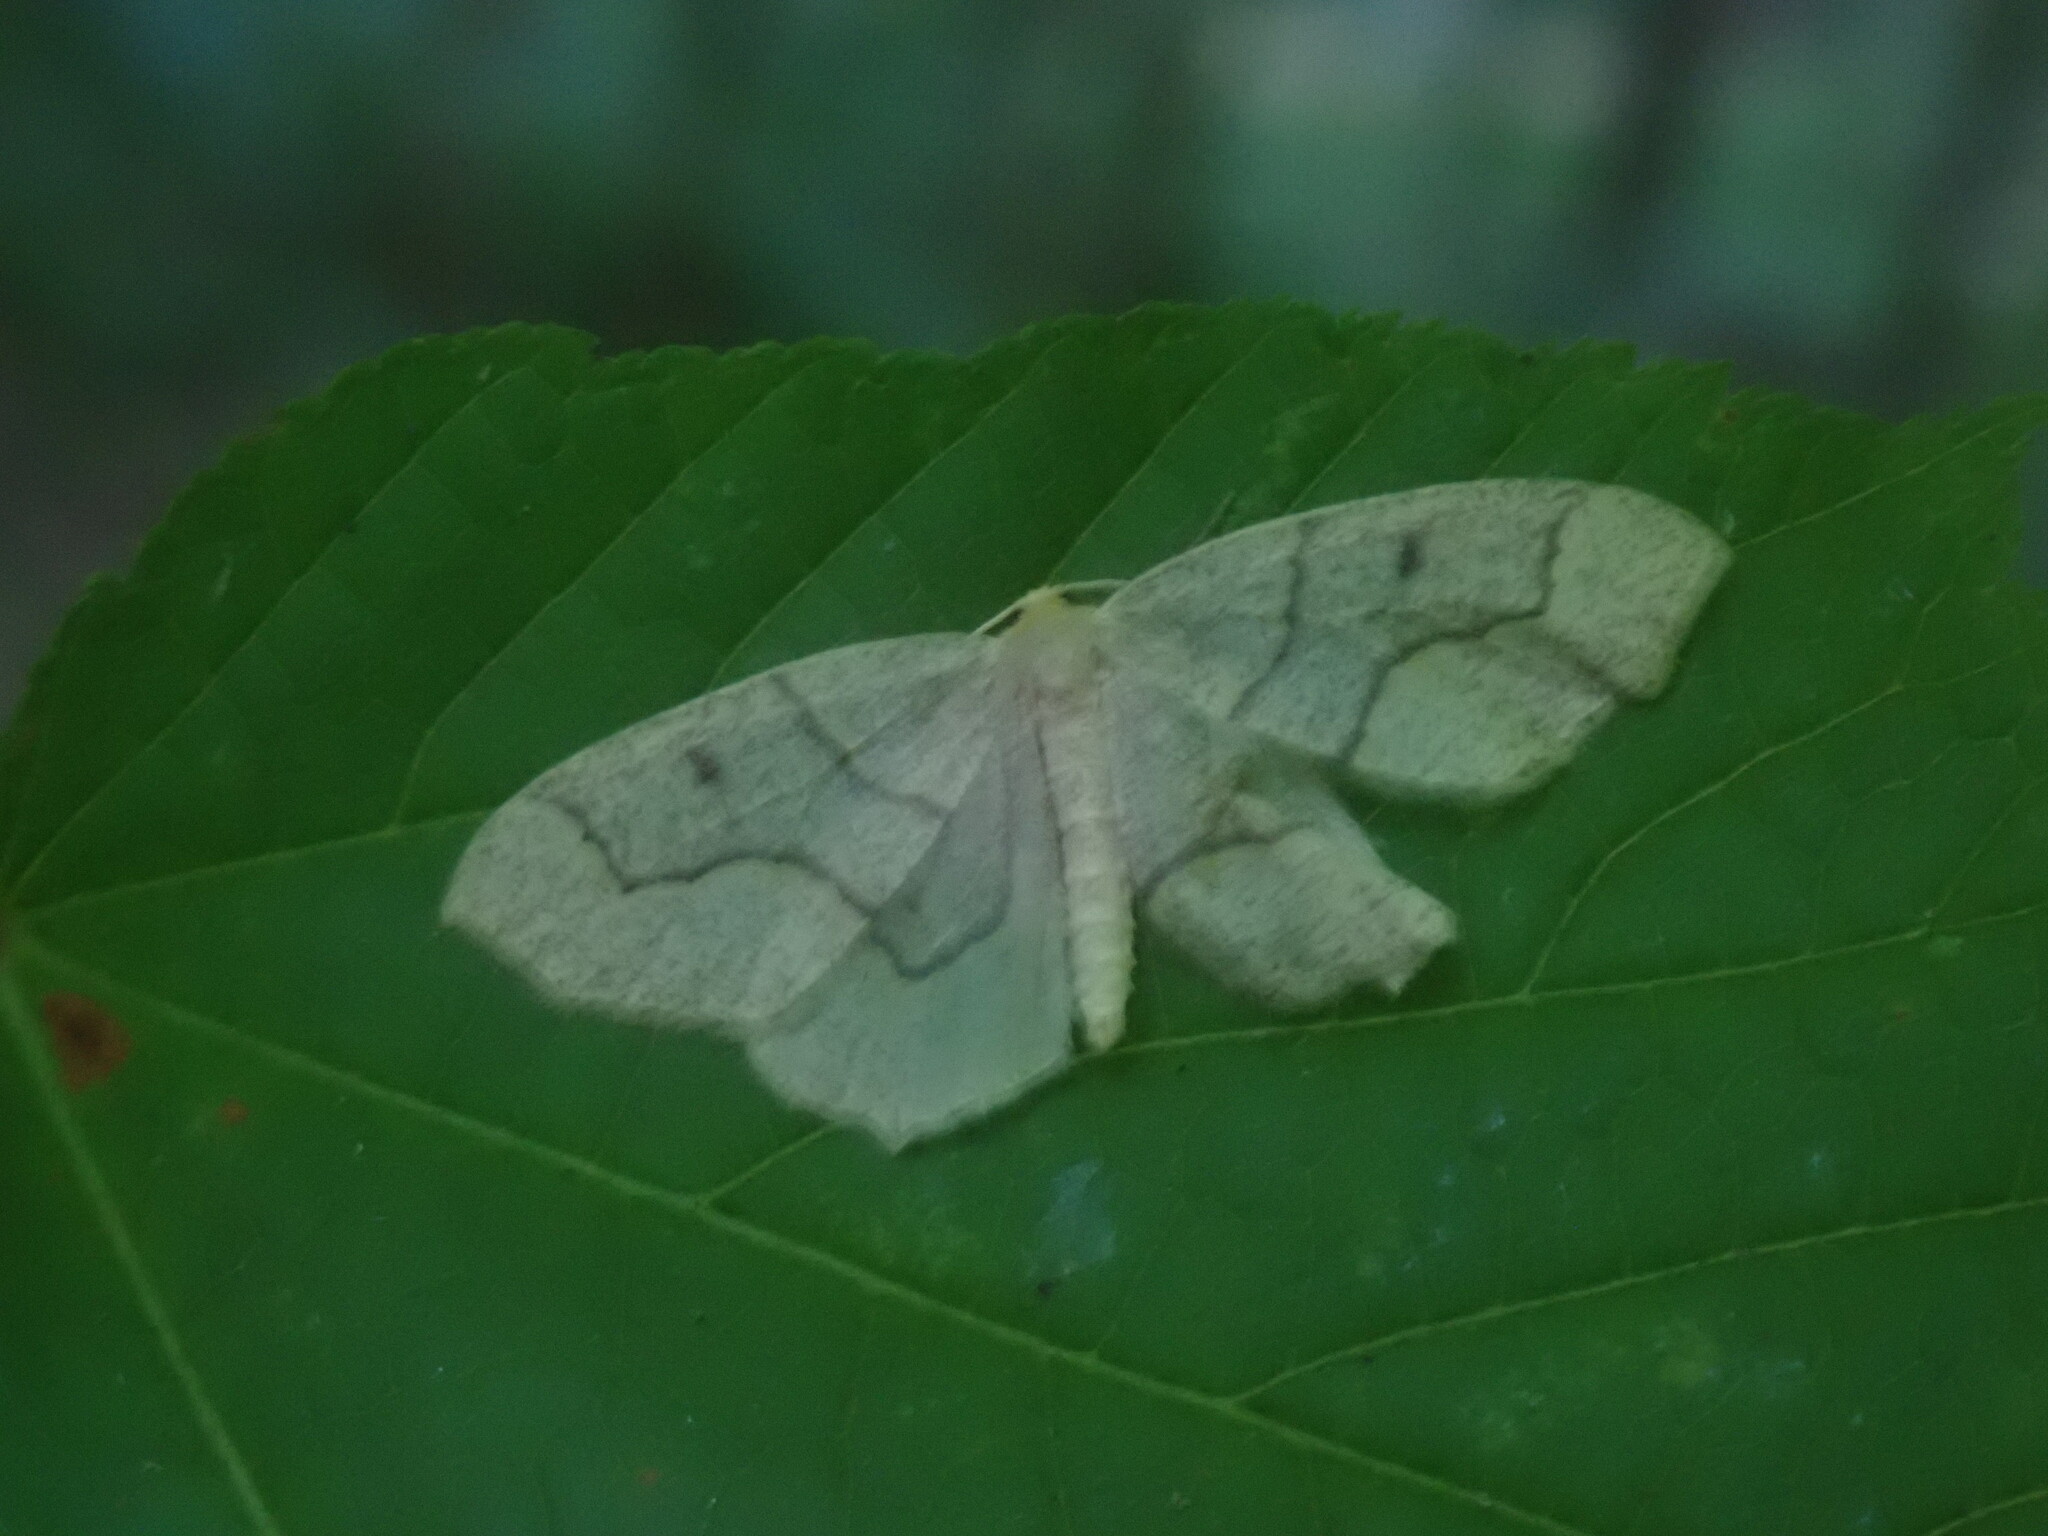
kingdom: Animalia
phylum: Arthropoda
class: Insecta
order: Lepidoptera
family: Geometridae
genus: Lambdina
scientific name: Lambdina fiscellaria
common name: Hemlock looper
